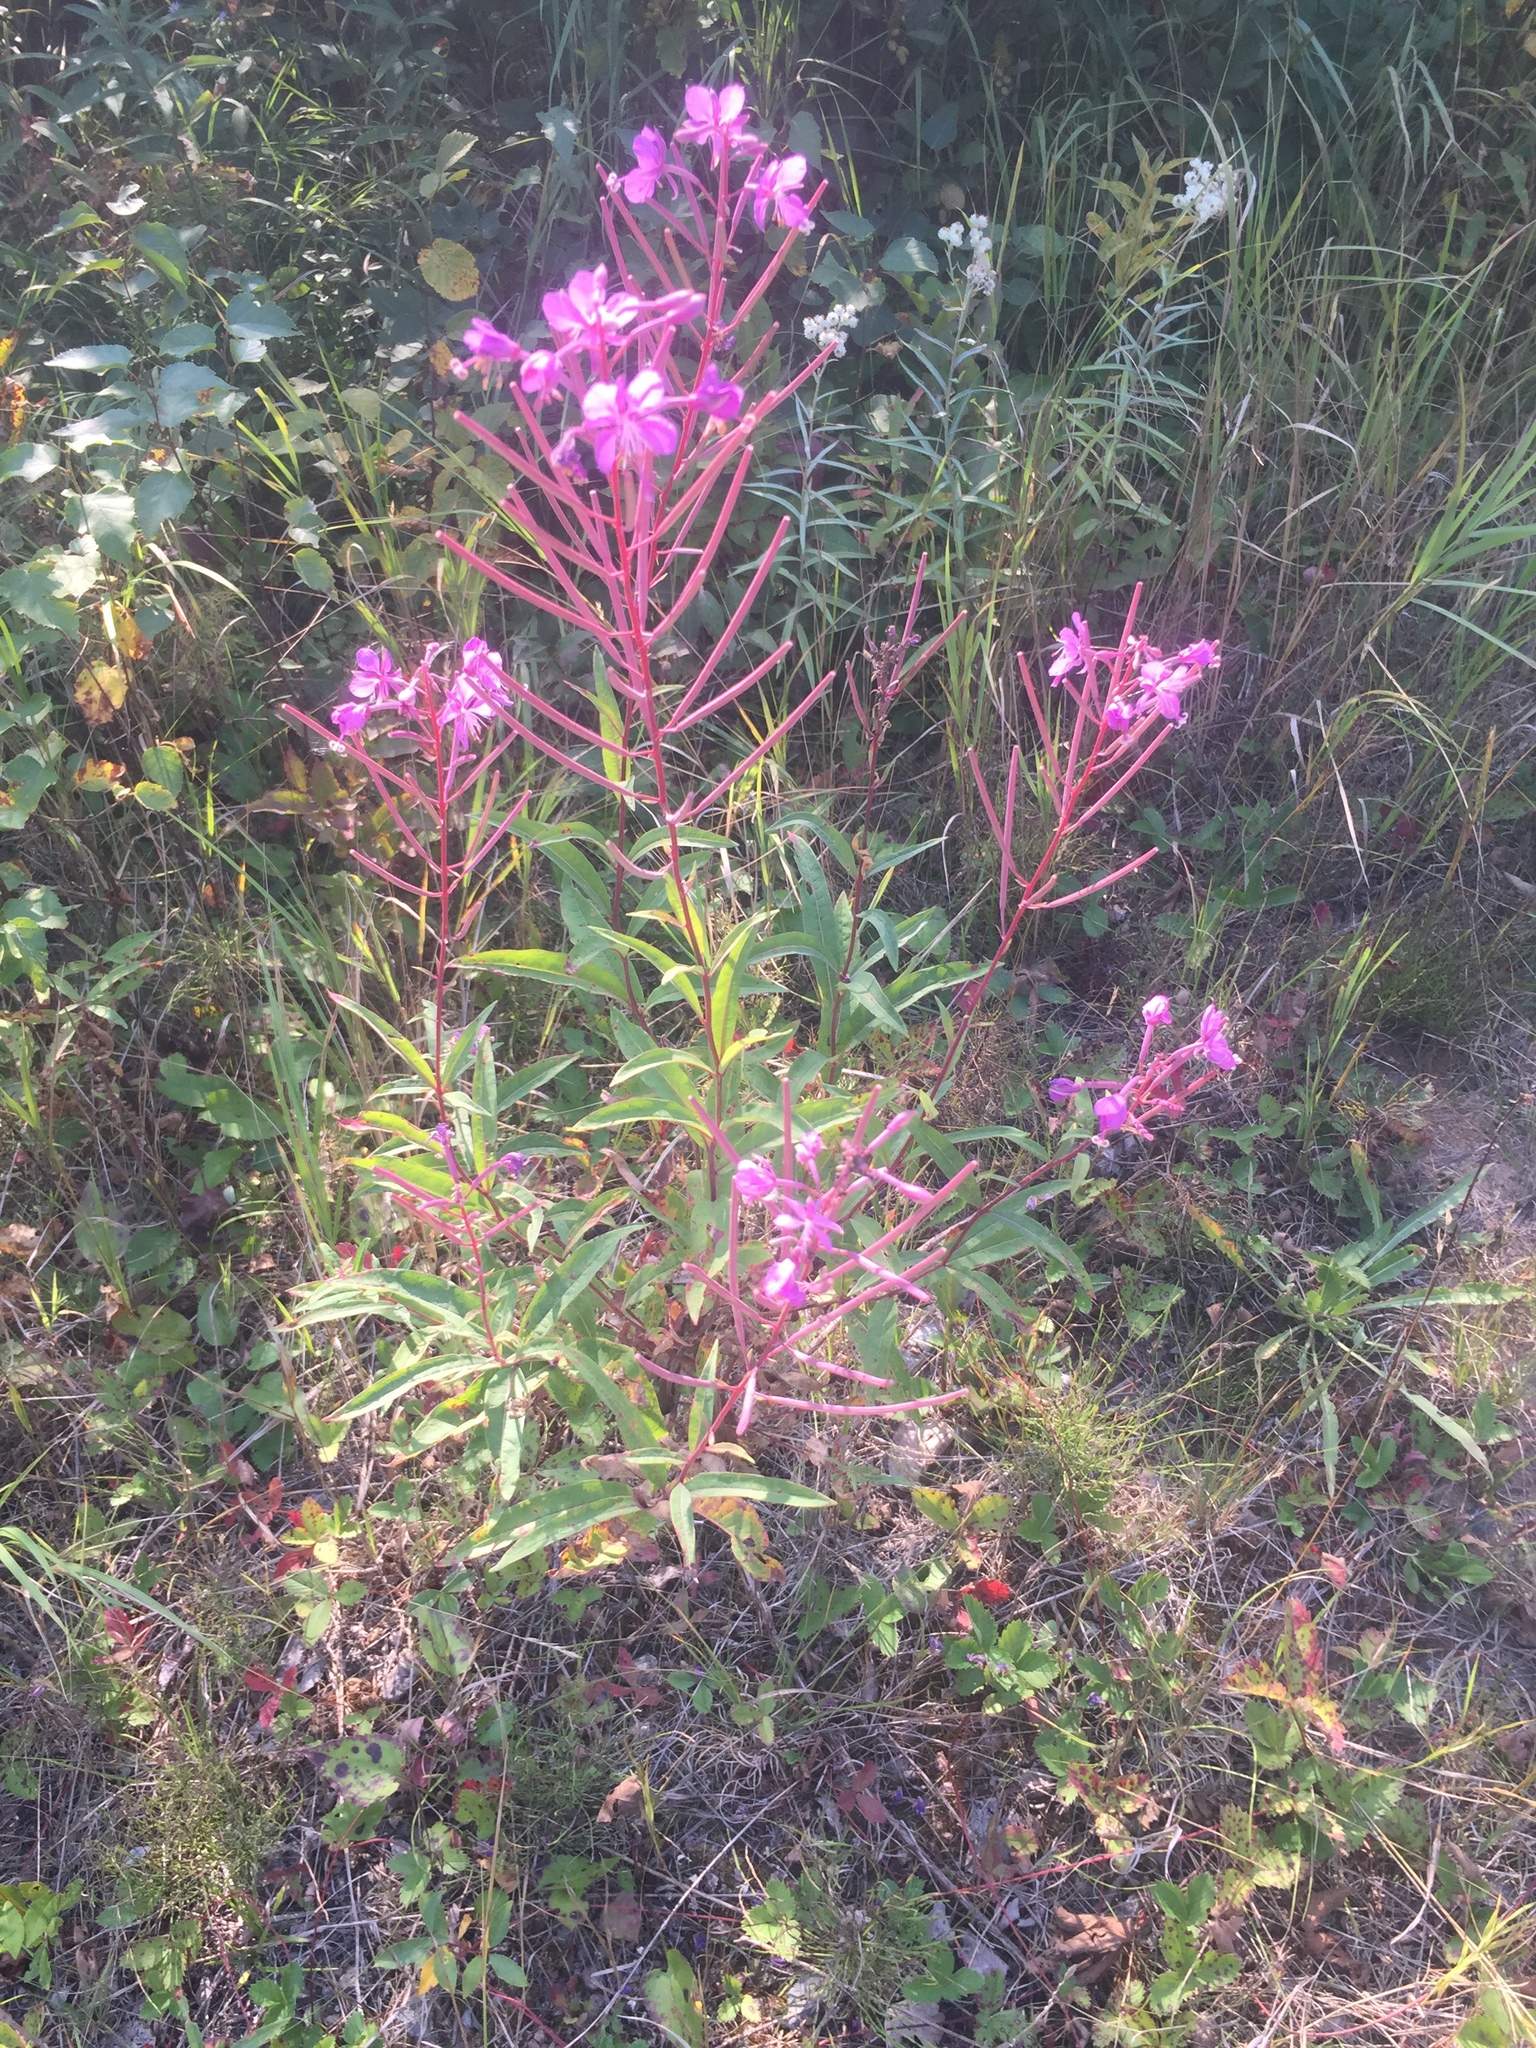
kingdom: Plantae
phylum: Tracheophyta
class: Magnoliopsida
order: Myrtales
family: Onagraceae
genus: Chamaenerion
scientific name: Chamaenerion angustifolium
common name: Fireweed
